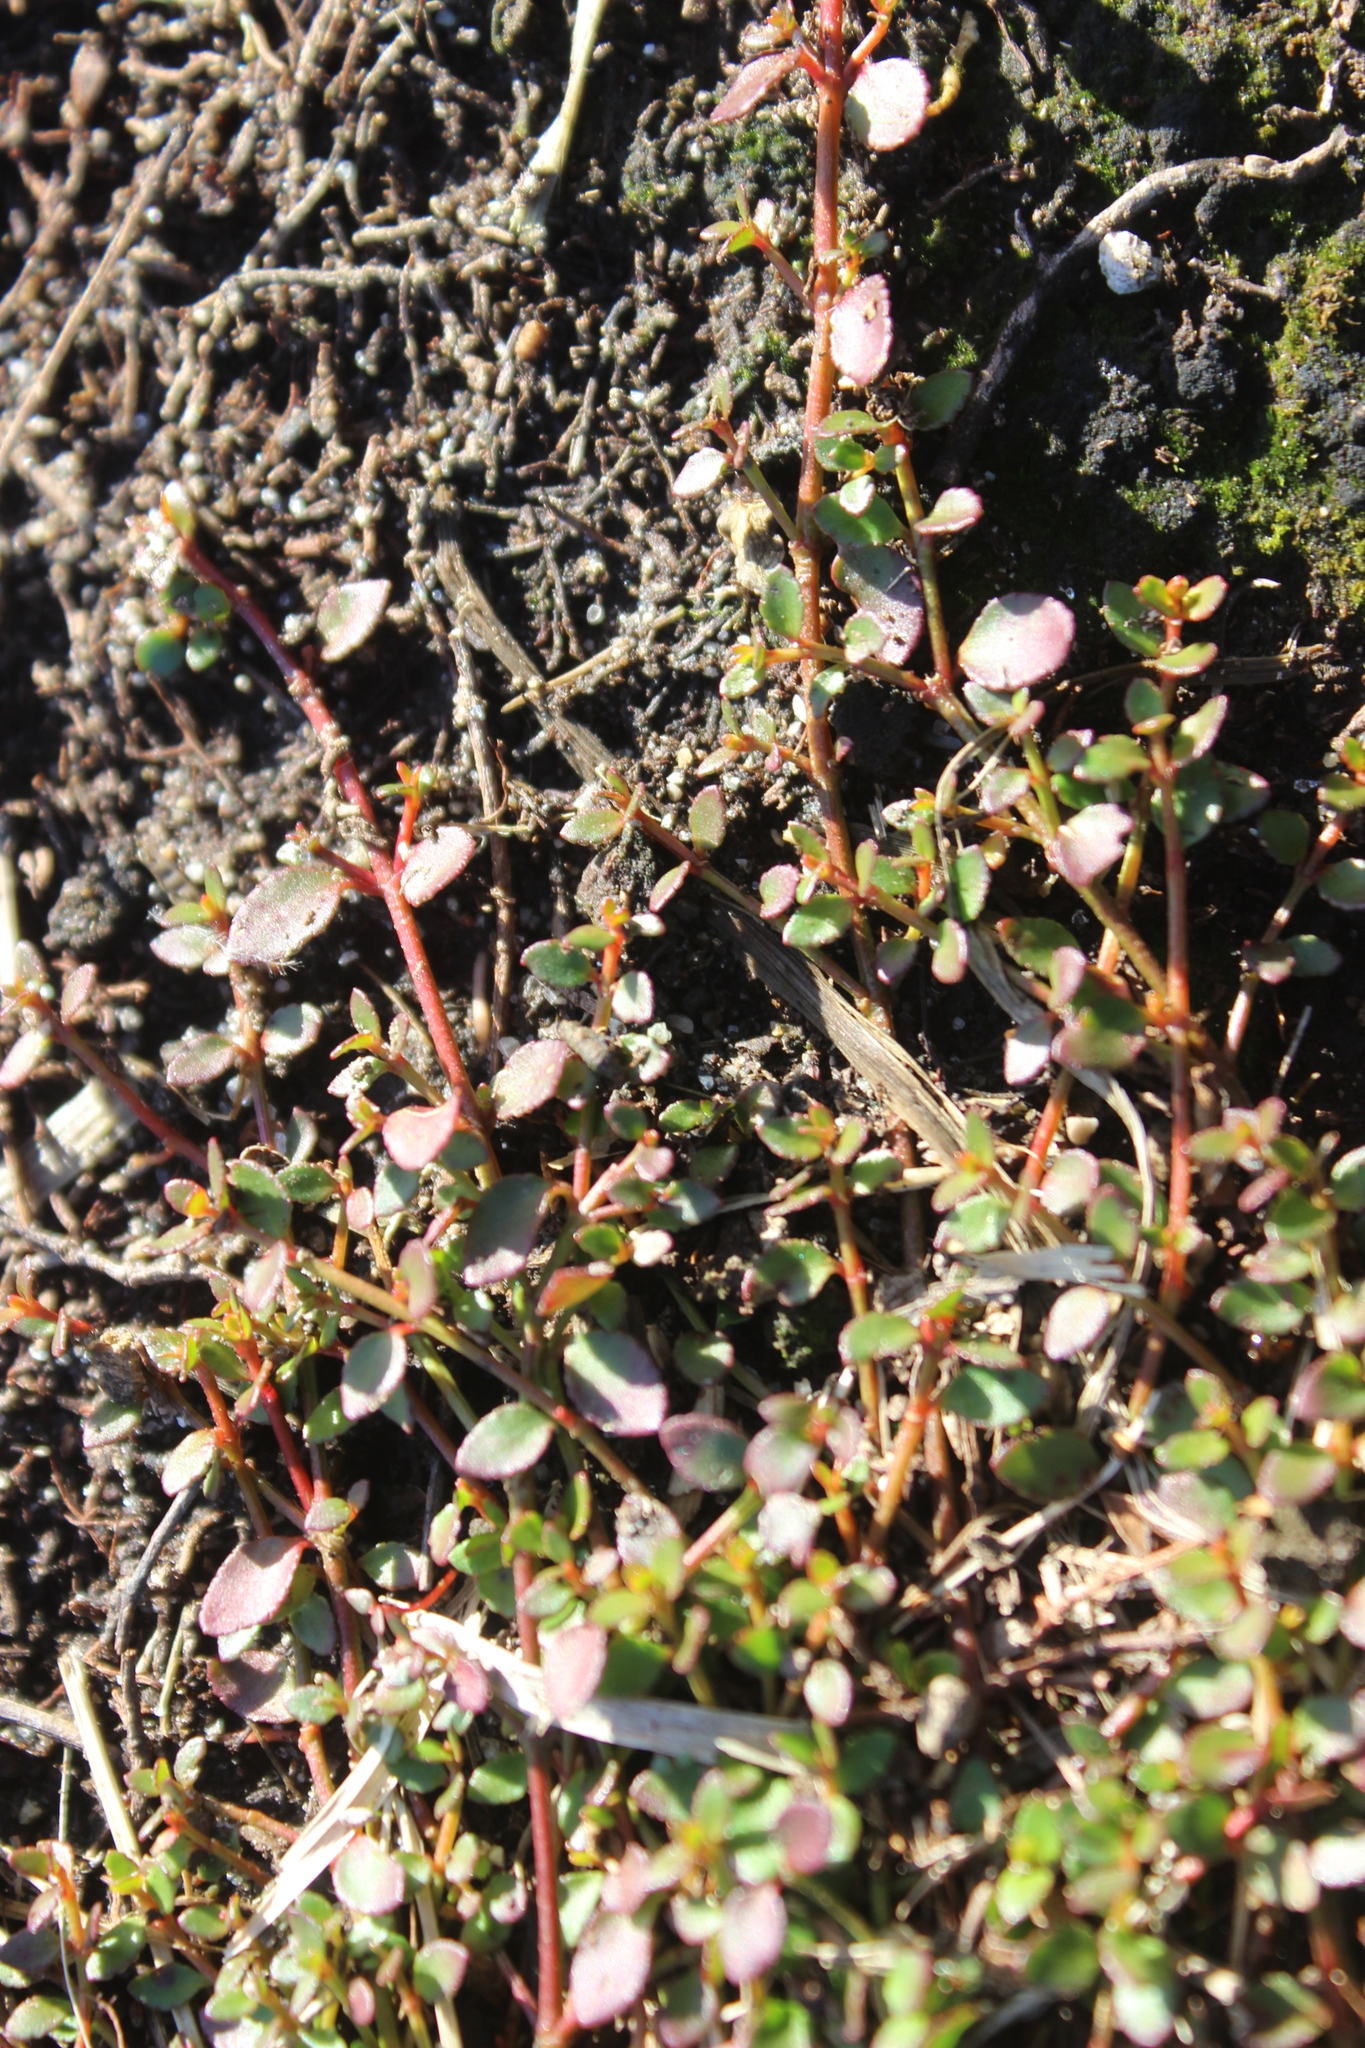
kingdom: Plantae
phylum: Tracheophyta
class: Magnoliopsida
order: Saxifragales
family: Haloragaceae
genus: Gonocarpus
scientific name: Gonocarpus micranthus
